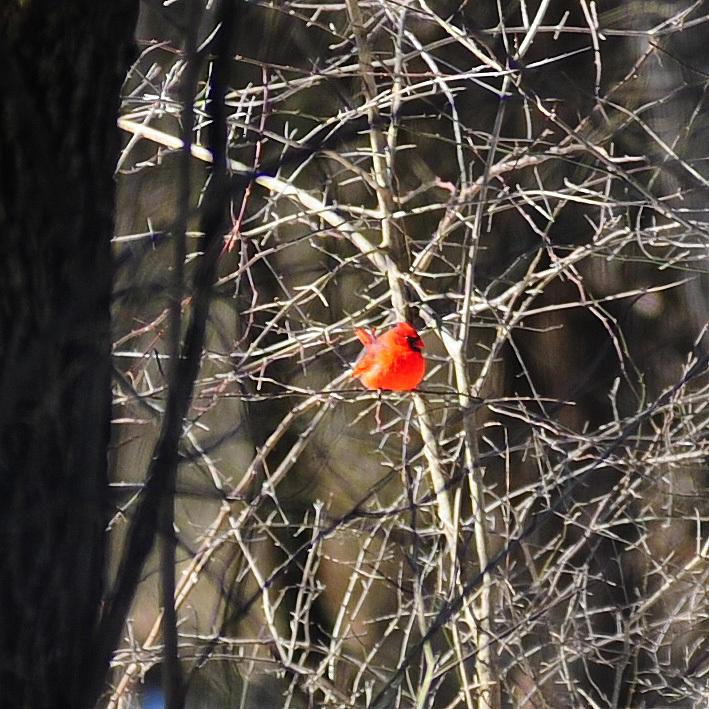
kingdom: Animalia
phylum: Chordata
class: Aves
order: Passeriformes
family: Cardinalidae
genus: Cardinalis
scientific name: Cardinalis cardinalis
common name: Northern cardinal
